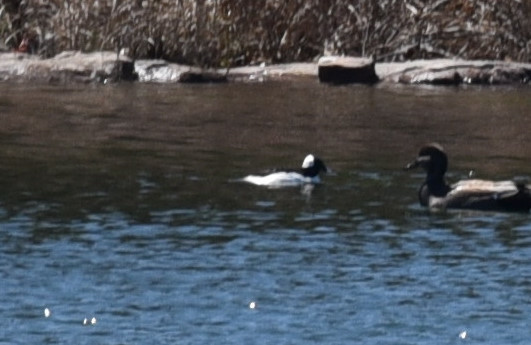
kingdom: Animalia
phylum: Chordata
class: Aves
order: Anseriformes
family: Anatidae
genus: Bucephala
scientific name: Bucephala albeola
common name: Bufflehead
